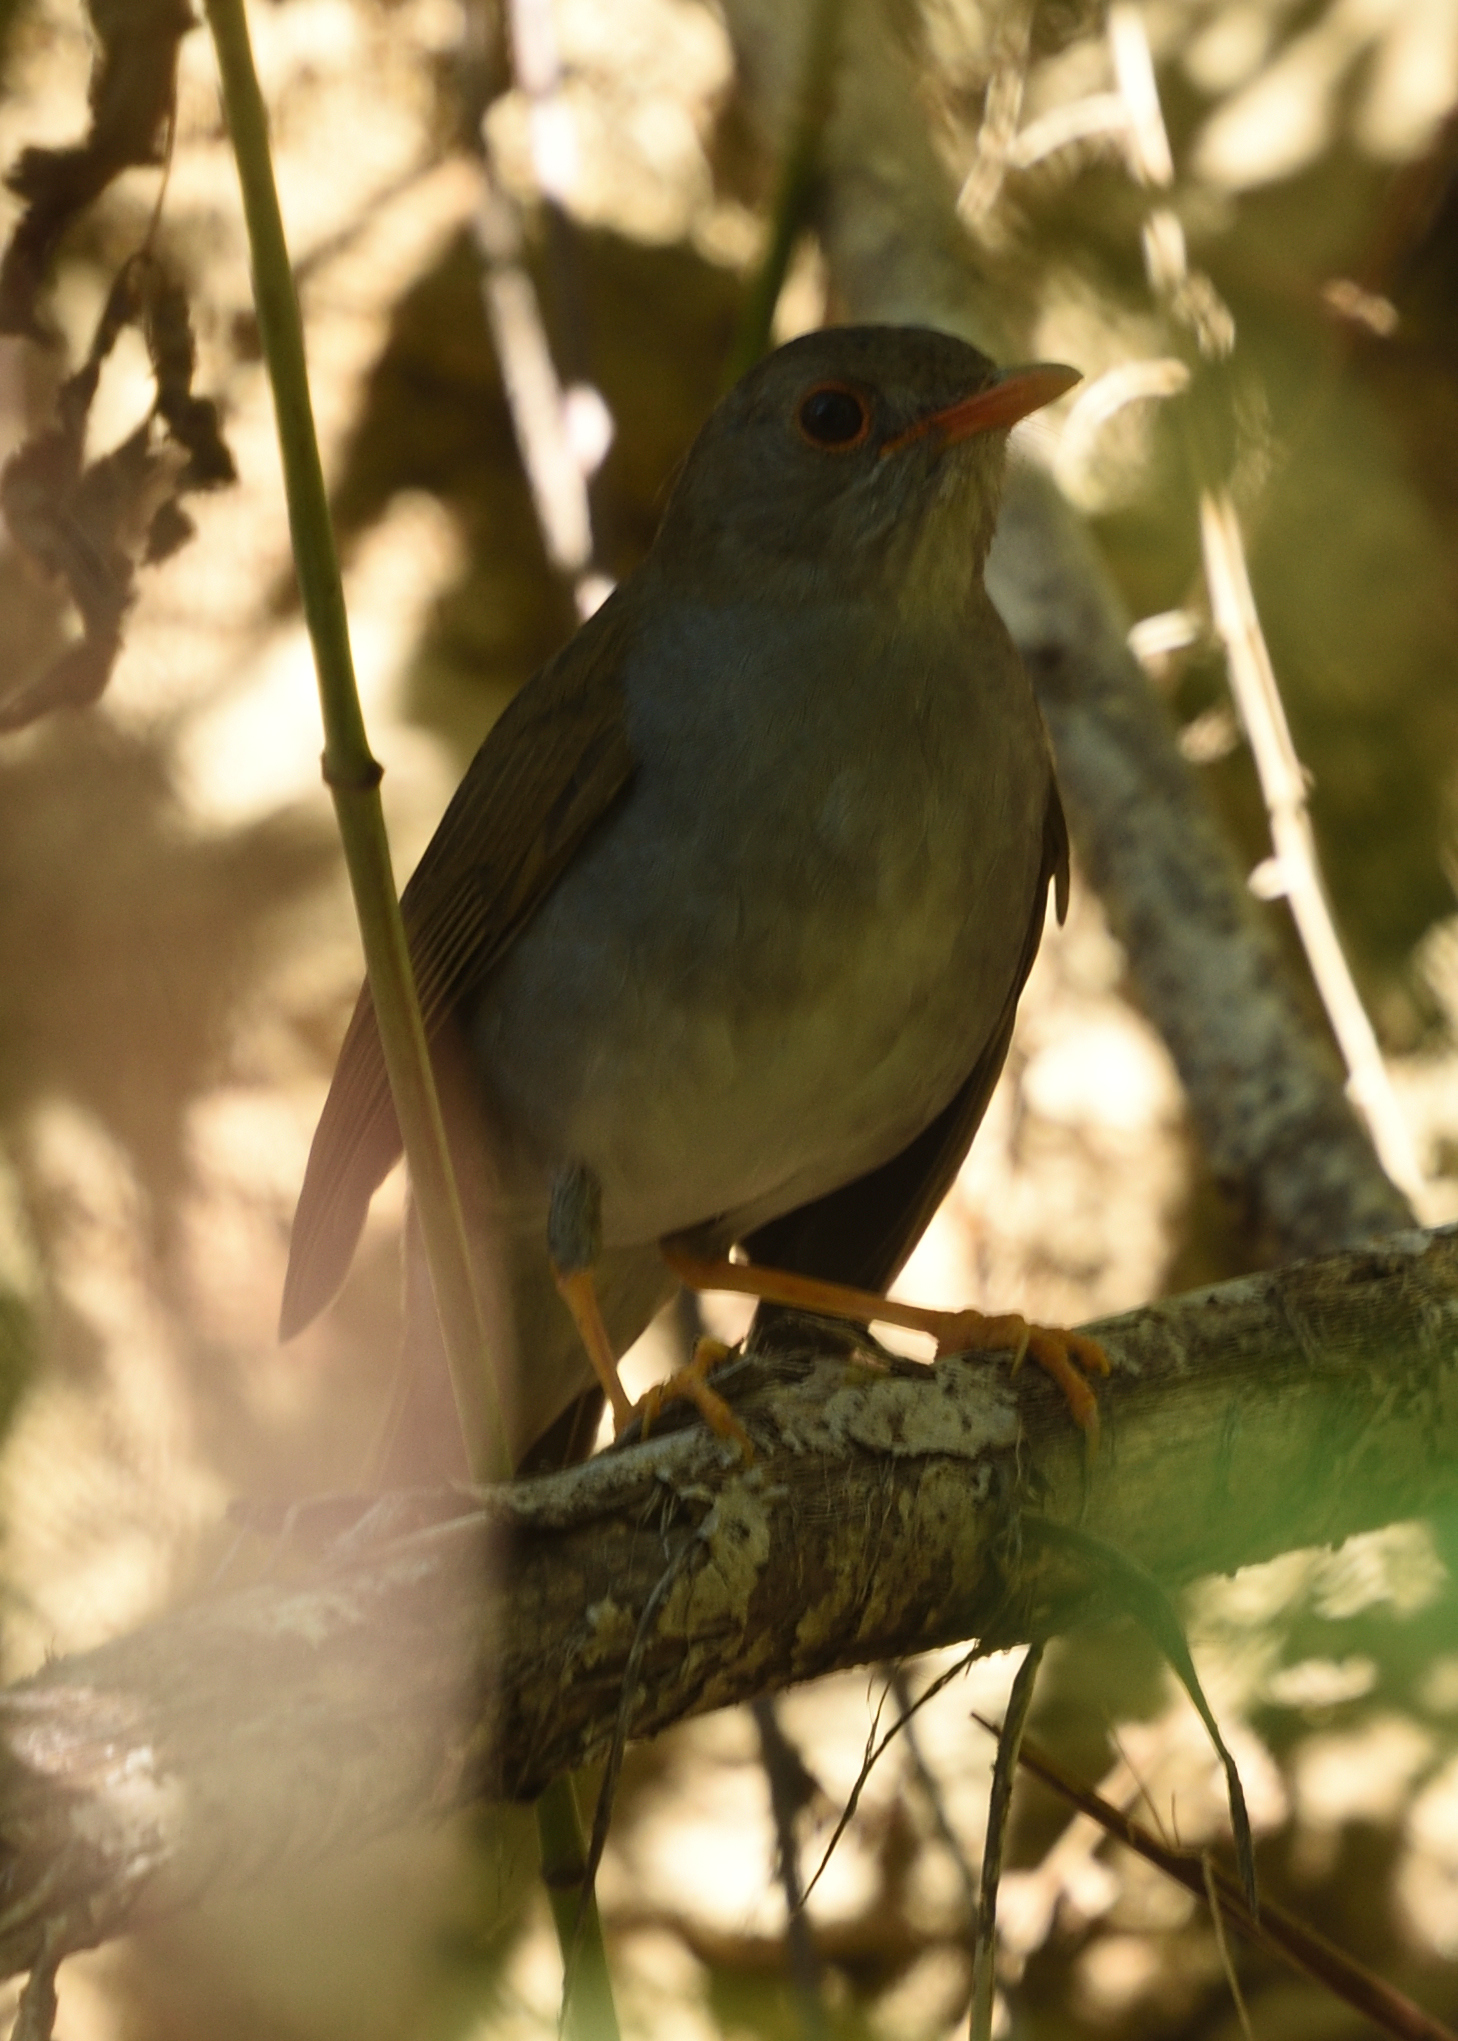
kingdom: Animalia
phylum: Chordata
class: Aves
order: Passeriformes
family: Turdidae
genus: Catharus
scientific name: Catharus aurantiirostris
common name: Orange-billed nightingale-thrush
